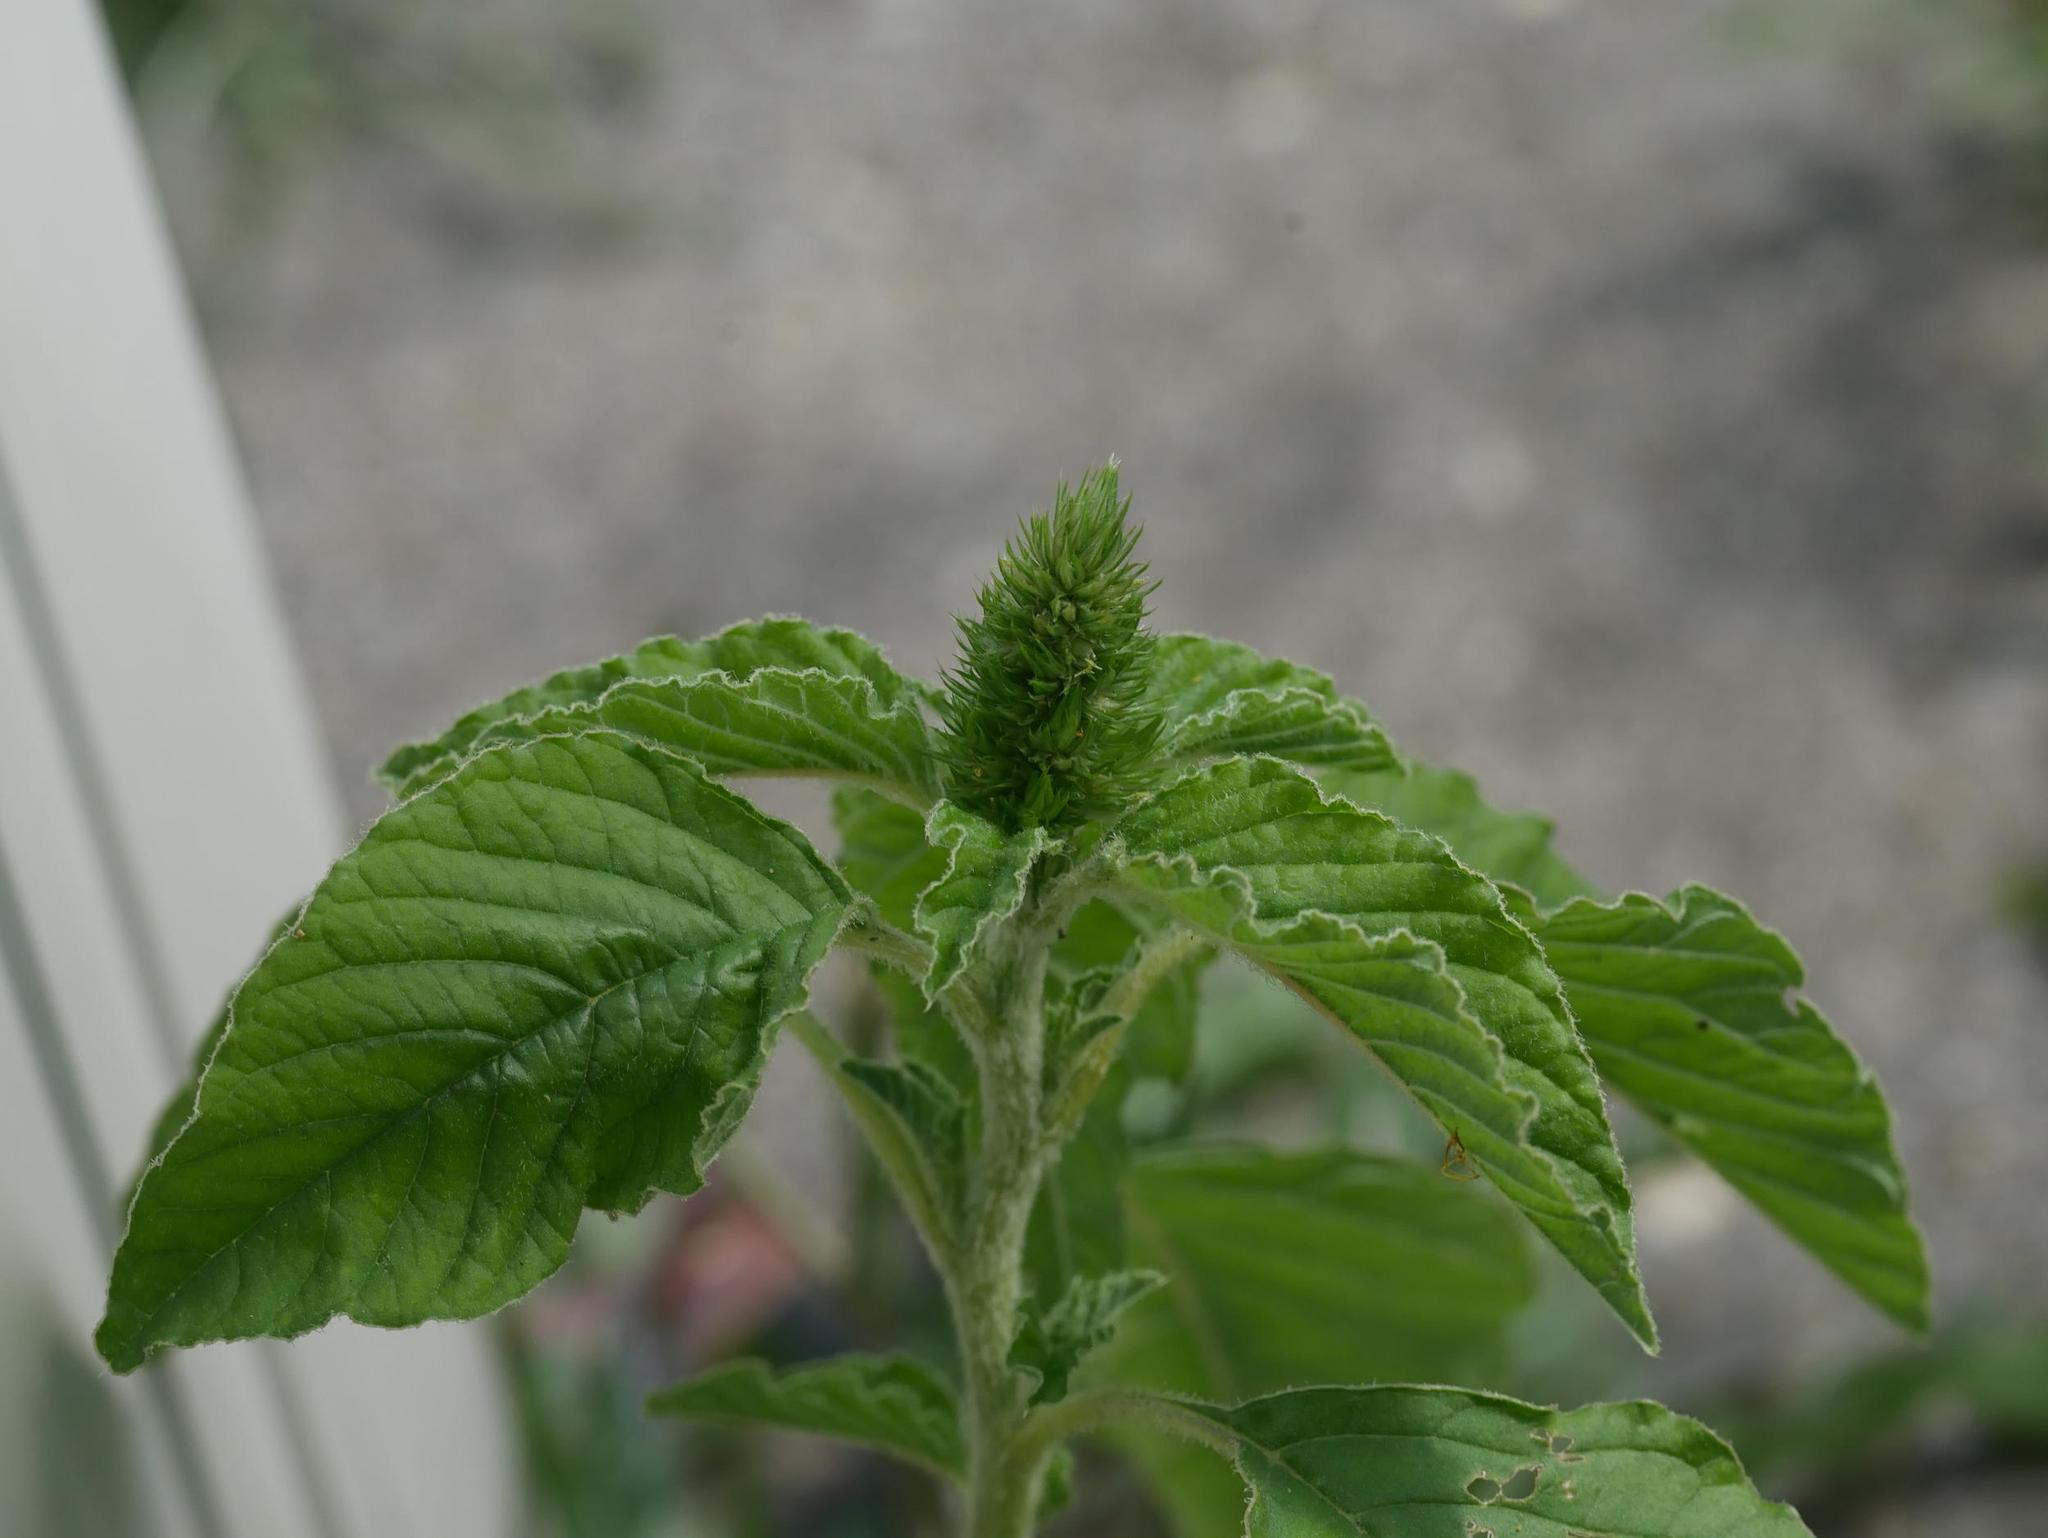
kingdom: Plantae
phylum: Tracheophyta
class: Magnoliopsida
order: Caryophyllales
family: Amaranthaceae
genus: Amaranthus
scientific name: Amaranthus retroflexus
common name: Redroot amaranth
